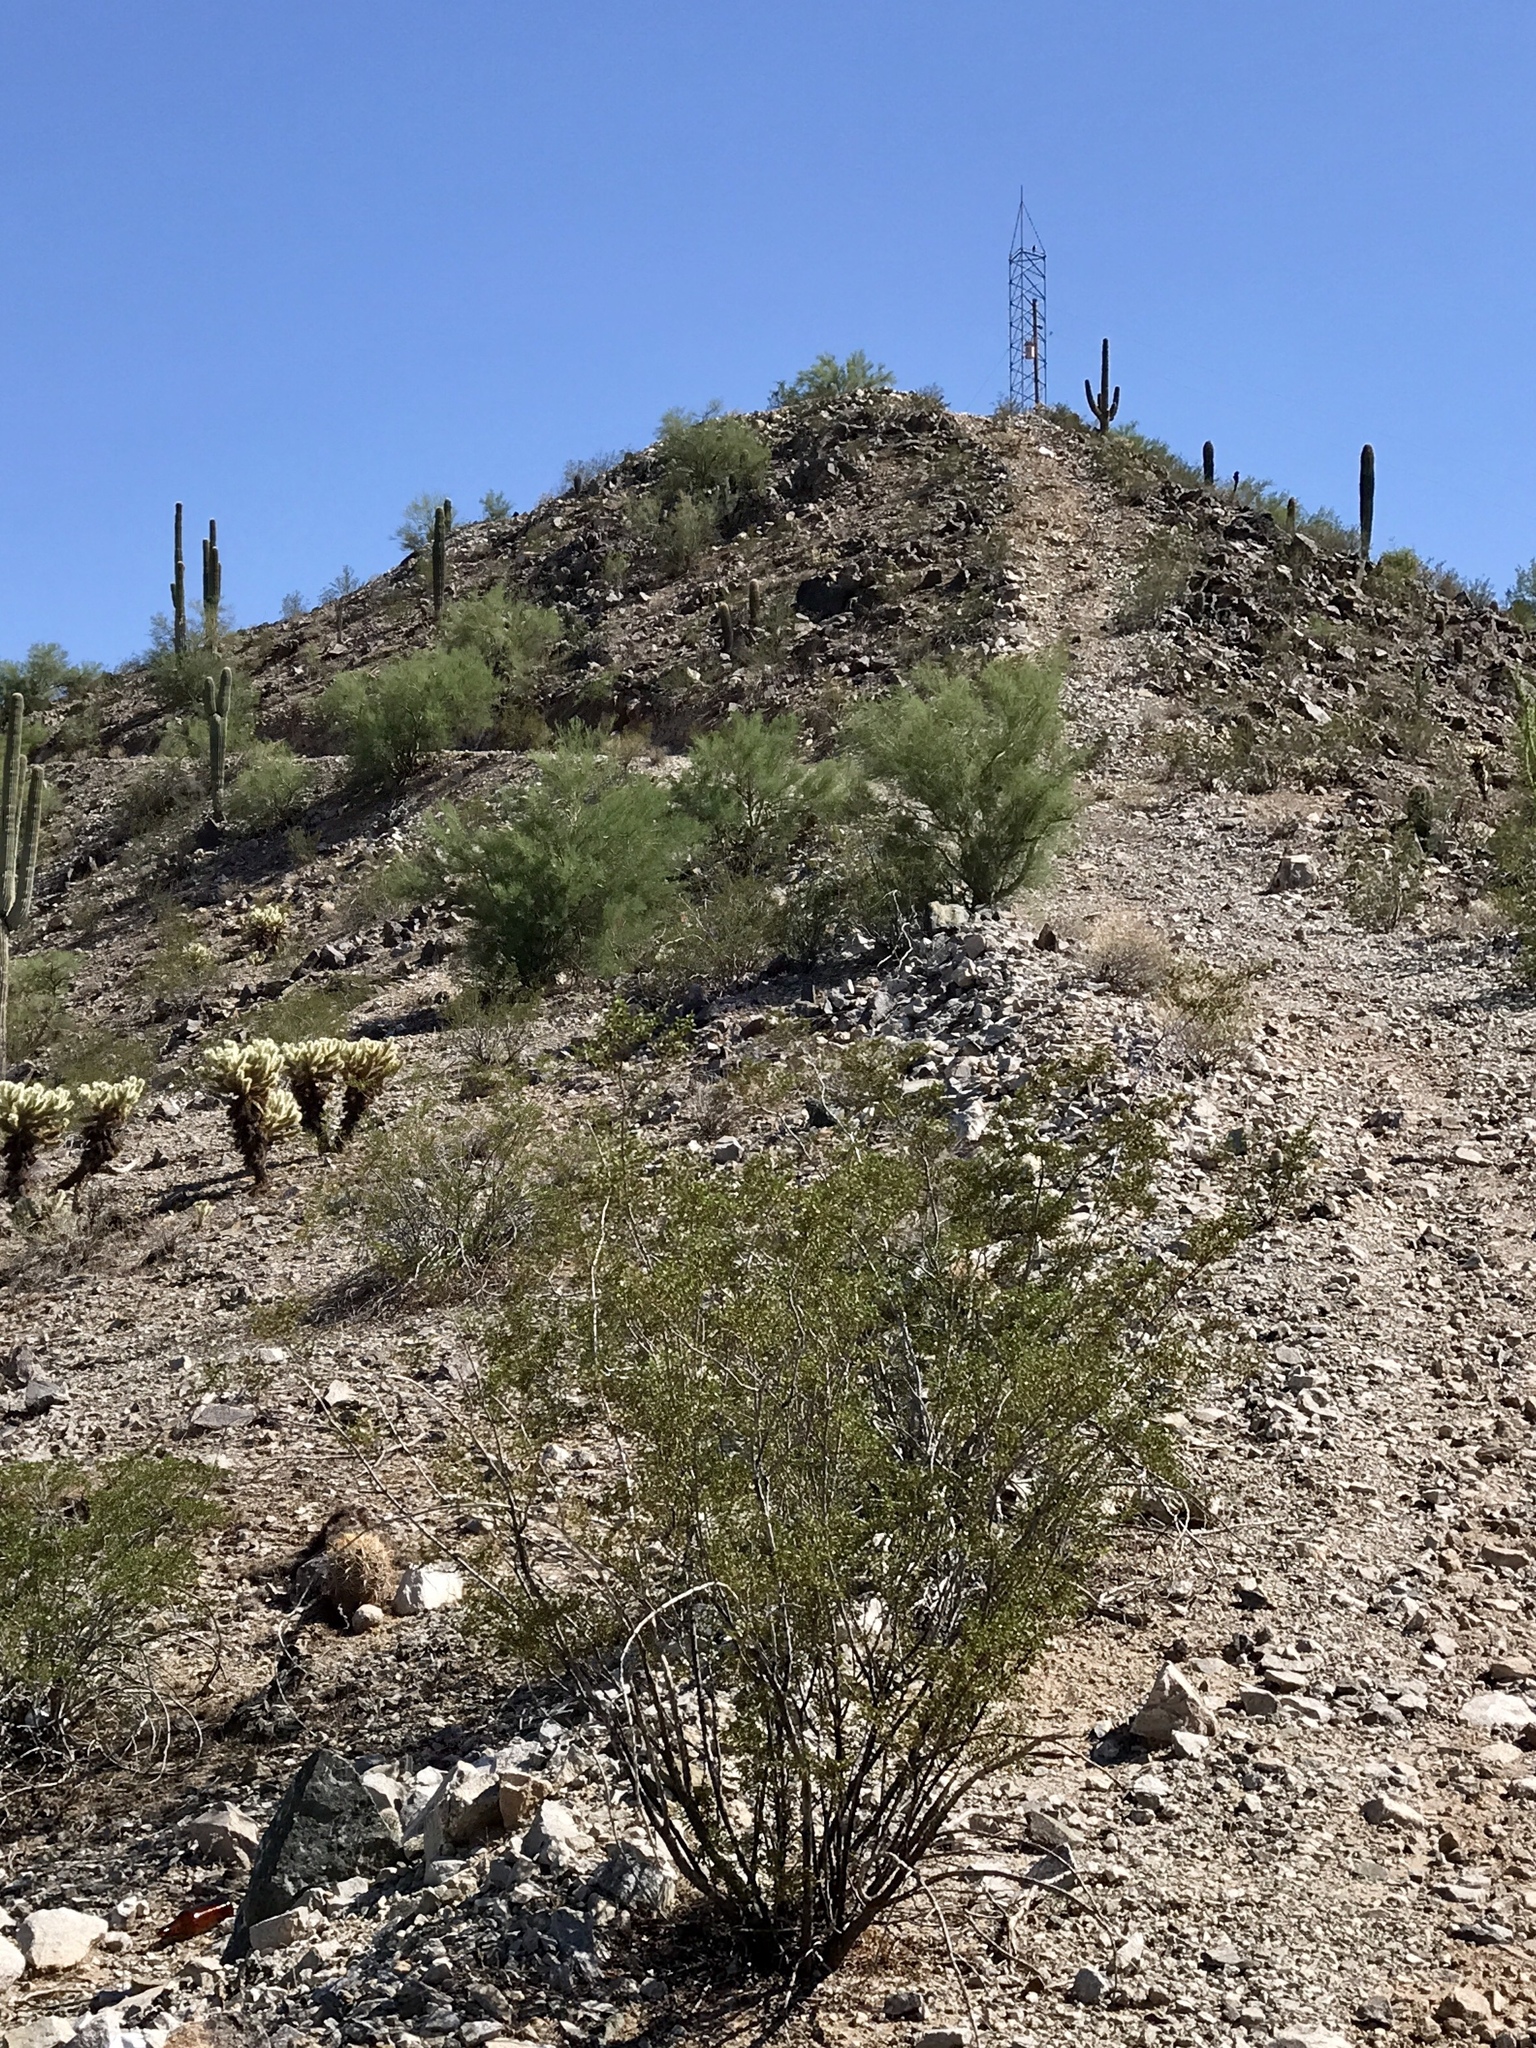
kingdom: Plantae
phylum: Tracheophyta
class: Magnoliopsida
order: Zygophyllales
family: Zygophyllaceae
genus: Larrea
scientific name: Larrea tridentata
